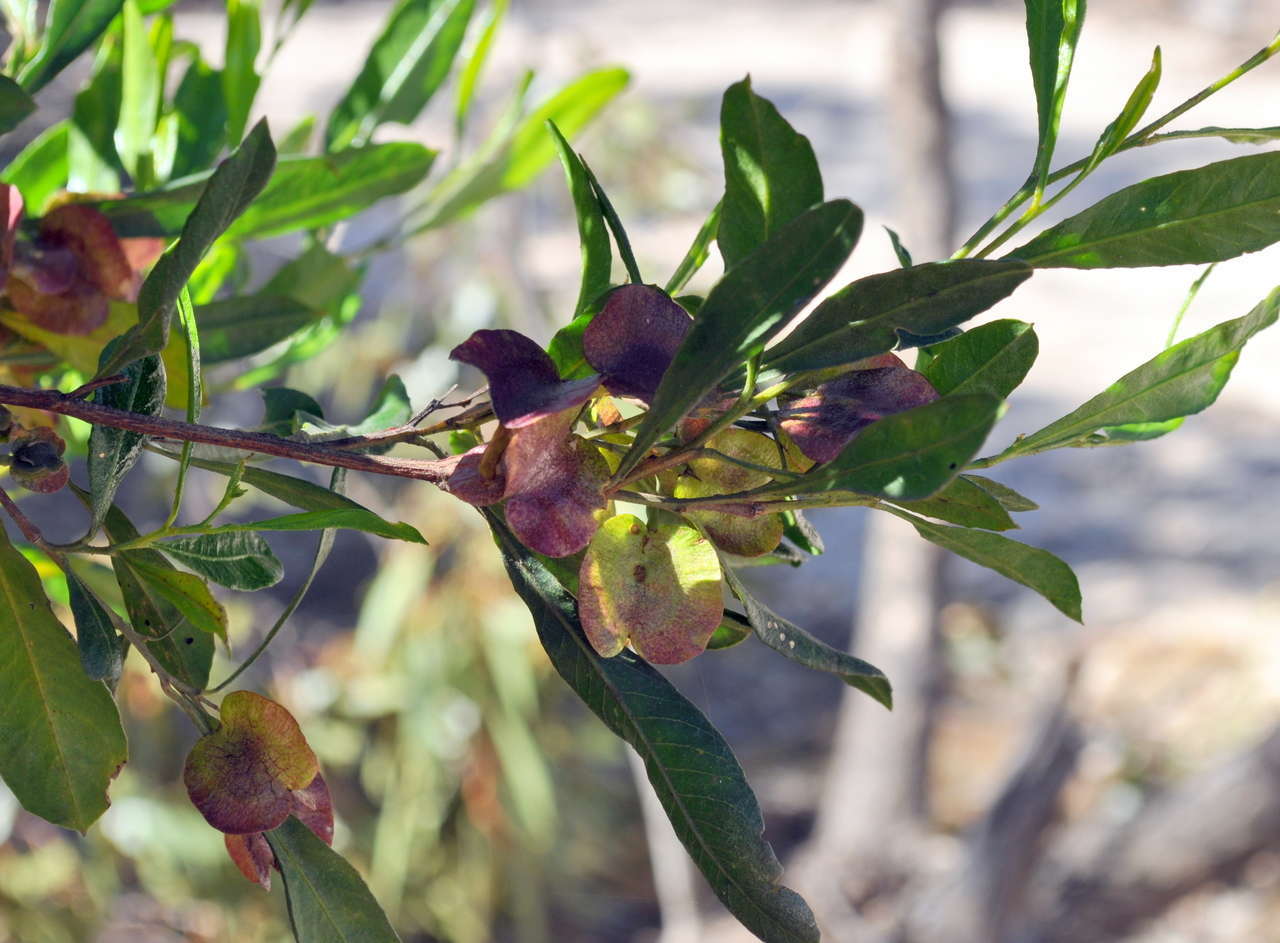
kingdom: Plantae
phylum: Tracheophyta
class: Magnoliopsida
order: Sapindales
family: Sapindaceae
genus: Dodonaea
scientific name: Dodonaea viscosa
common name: Hopbush
